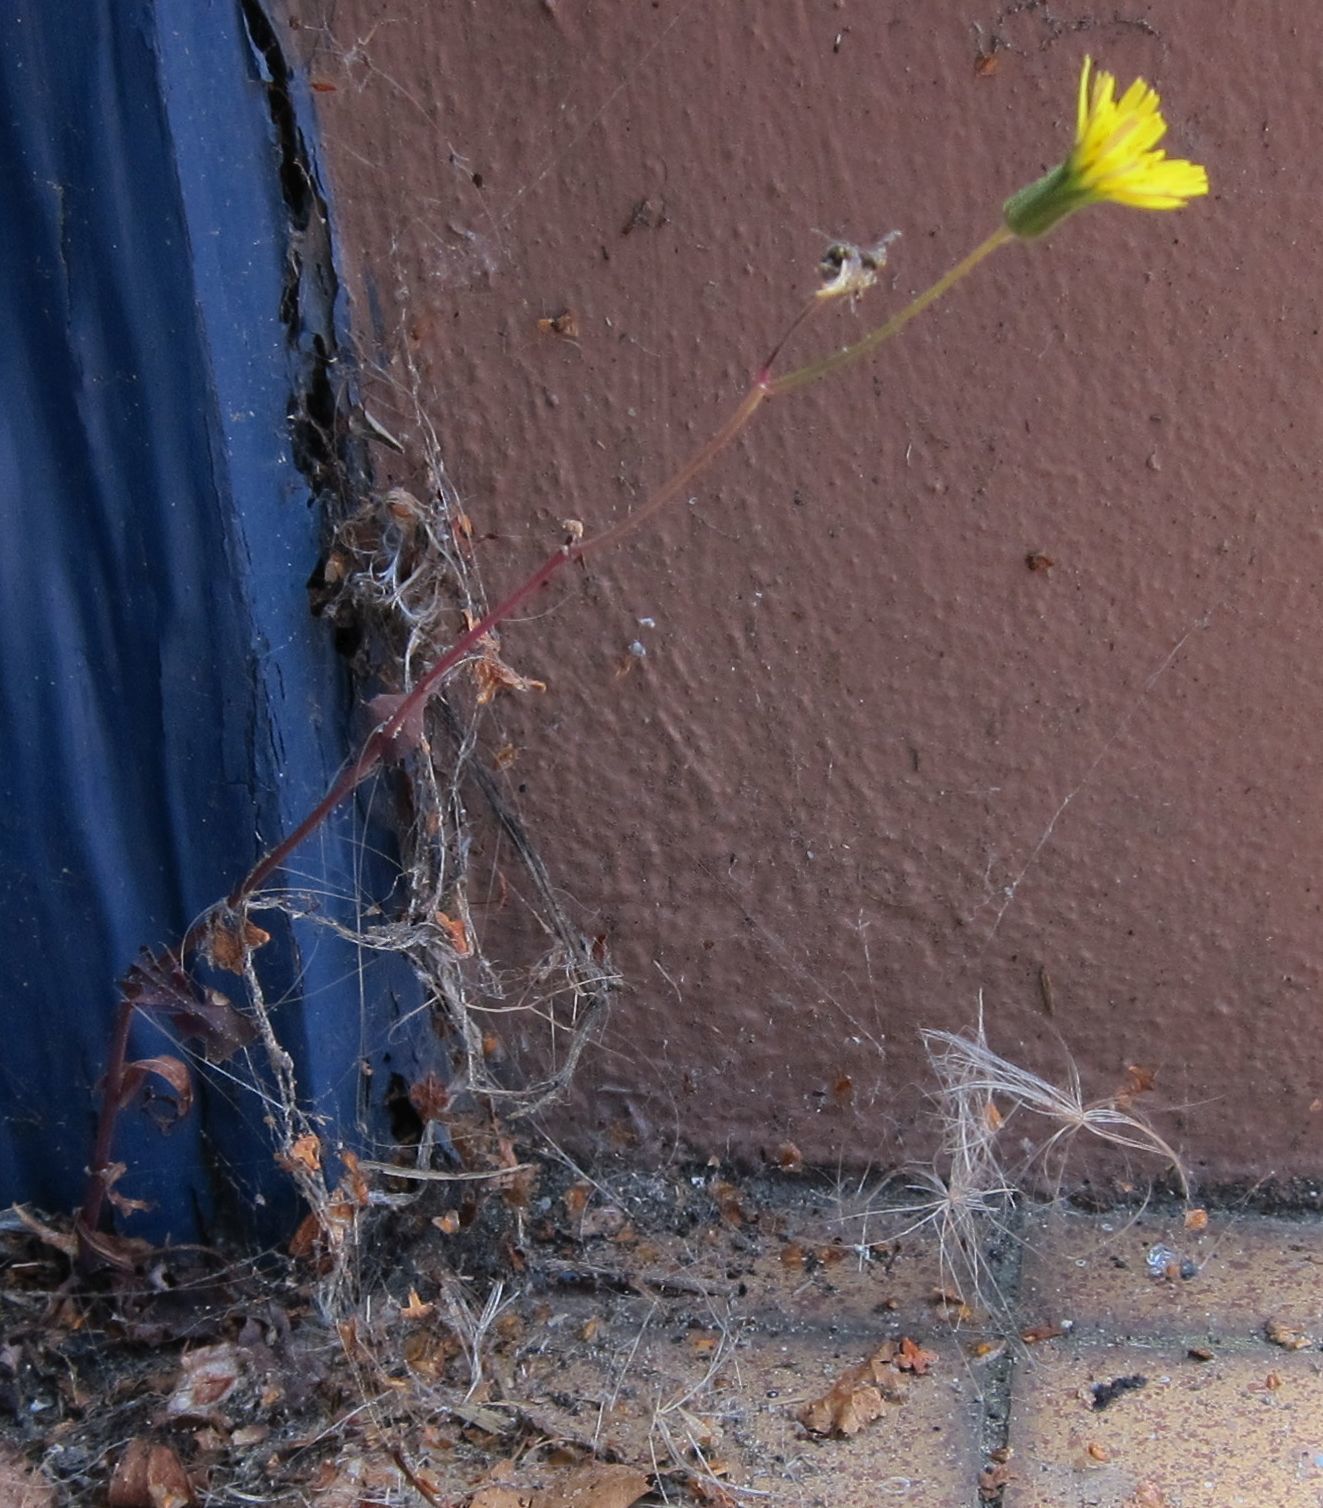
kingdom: Plantae
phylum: Tracheophyta
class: Magnoliopsida
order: Asterales
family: Asteraceae
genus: Sonchus
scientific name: Sonchus oleraceus
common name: Common sowthistle
